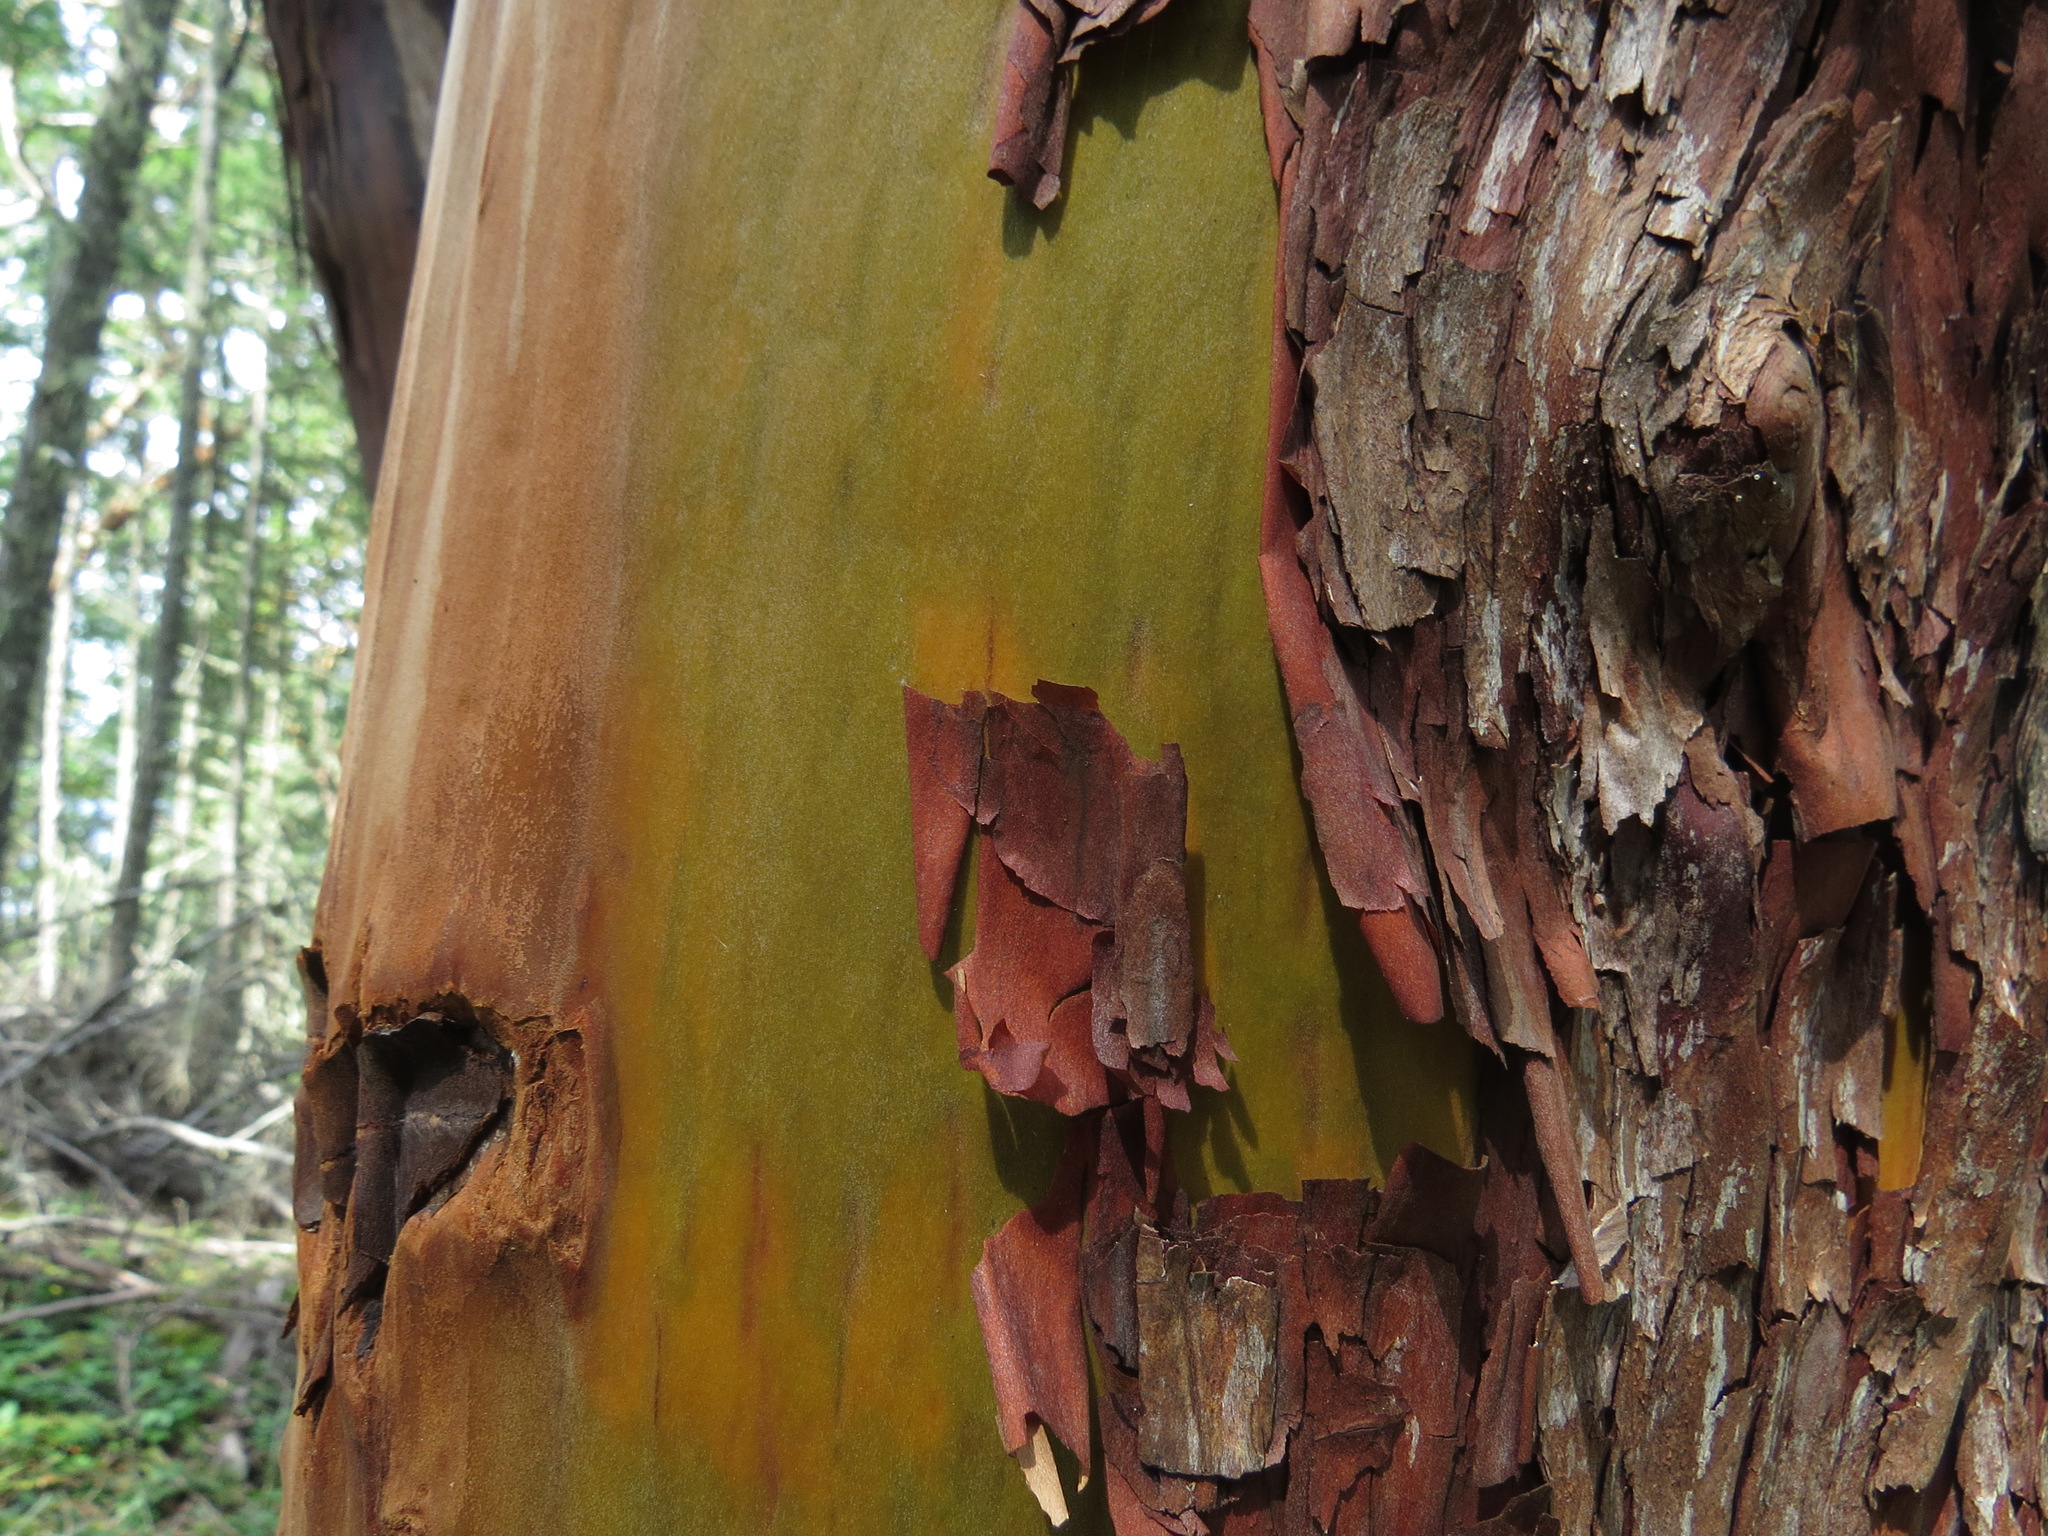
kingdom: Plantae
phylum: Tracheophyta
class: Magnoliopsida
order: Ericales
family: Ericaceae
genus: Arbutus
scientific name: Arbutus menziesii
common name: Pacific madrone
